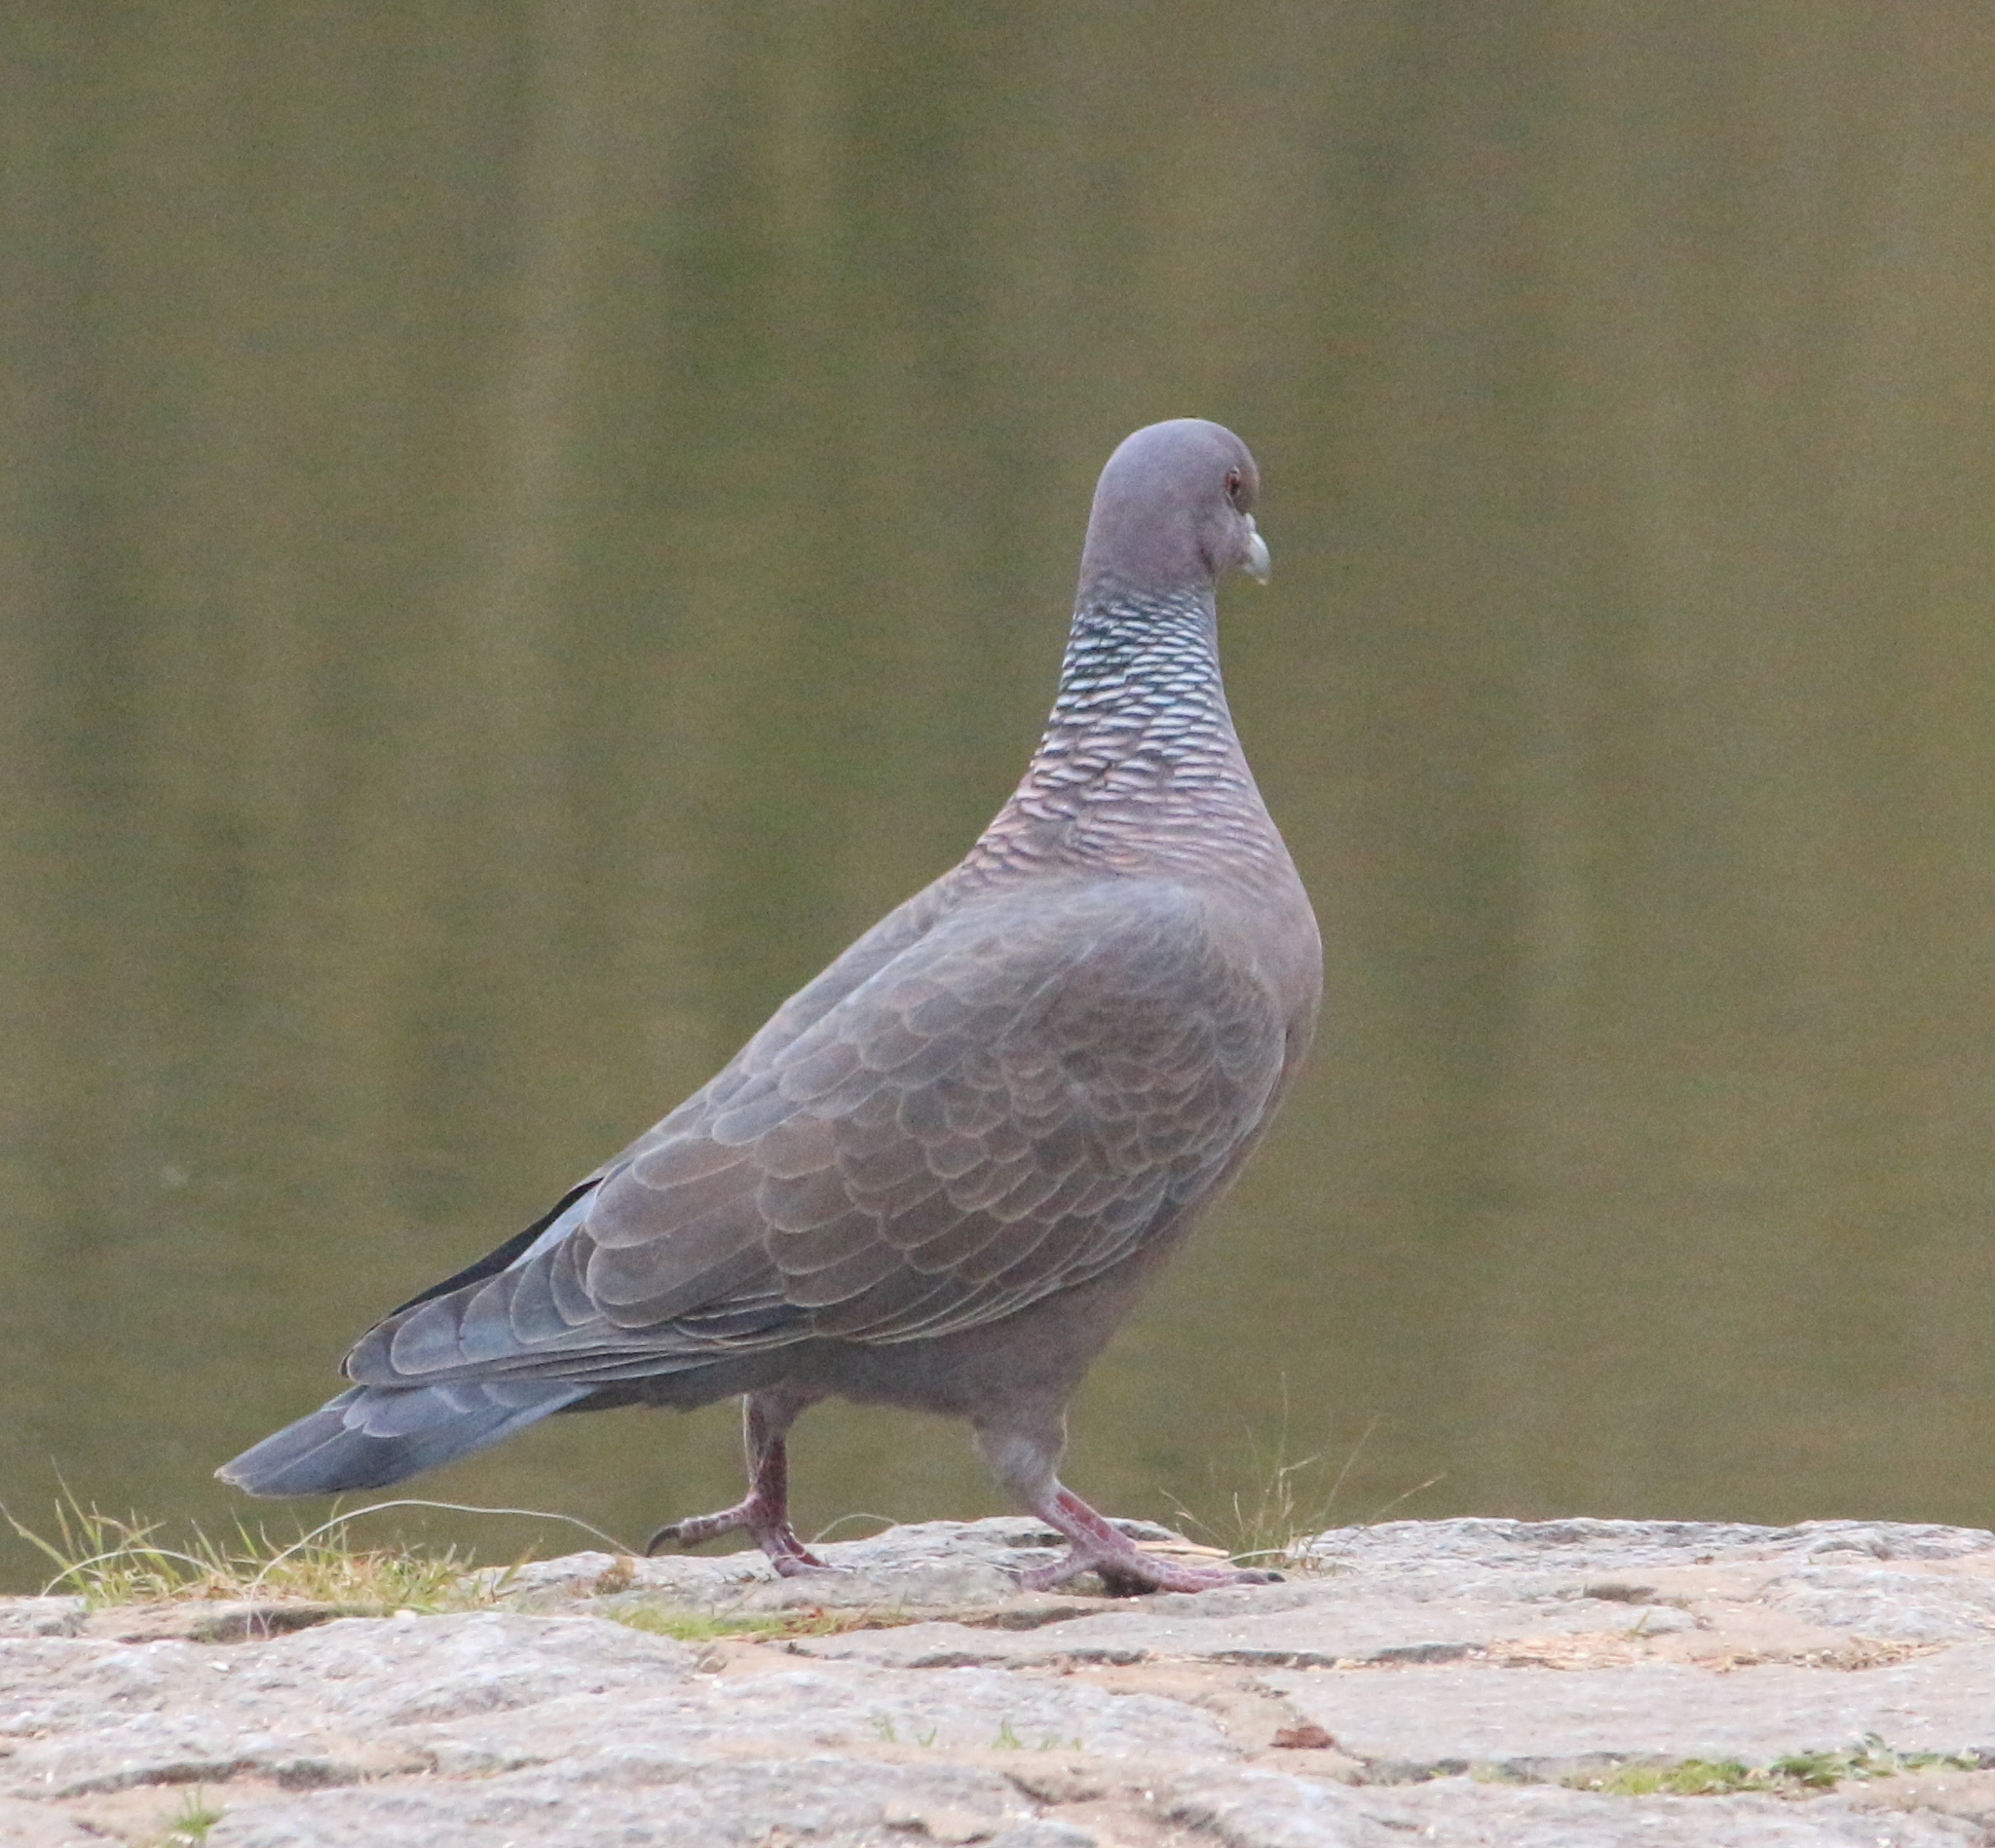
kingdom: Animalia
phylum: Chordata
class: Aves
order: Columbiformes
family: Columbidae
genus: Patagioenas
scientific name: Patagioenas picazuro
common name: Picazuro pigeon
